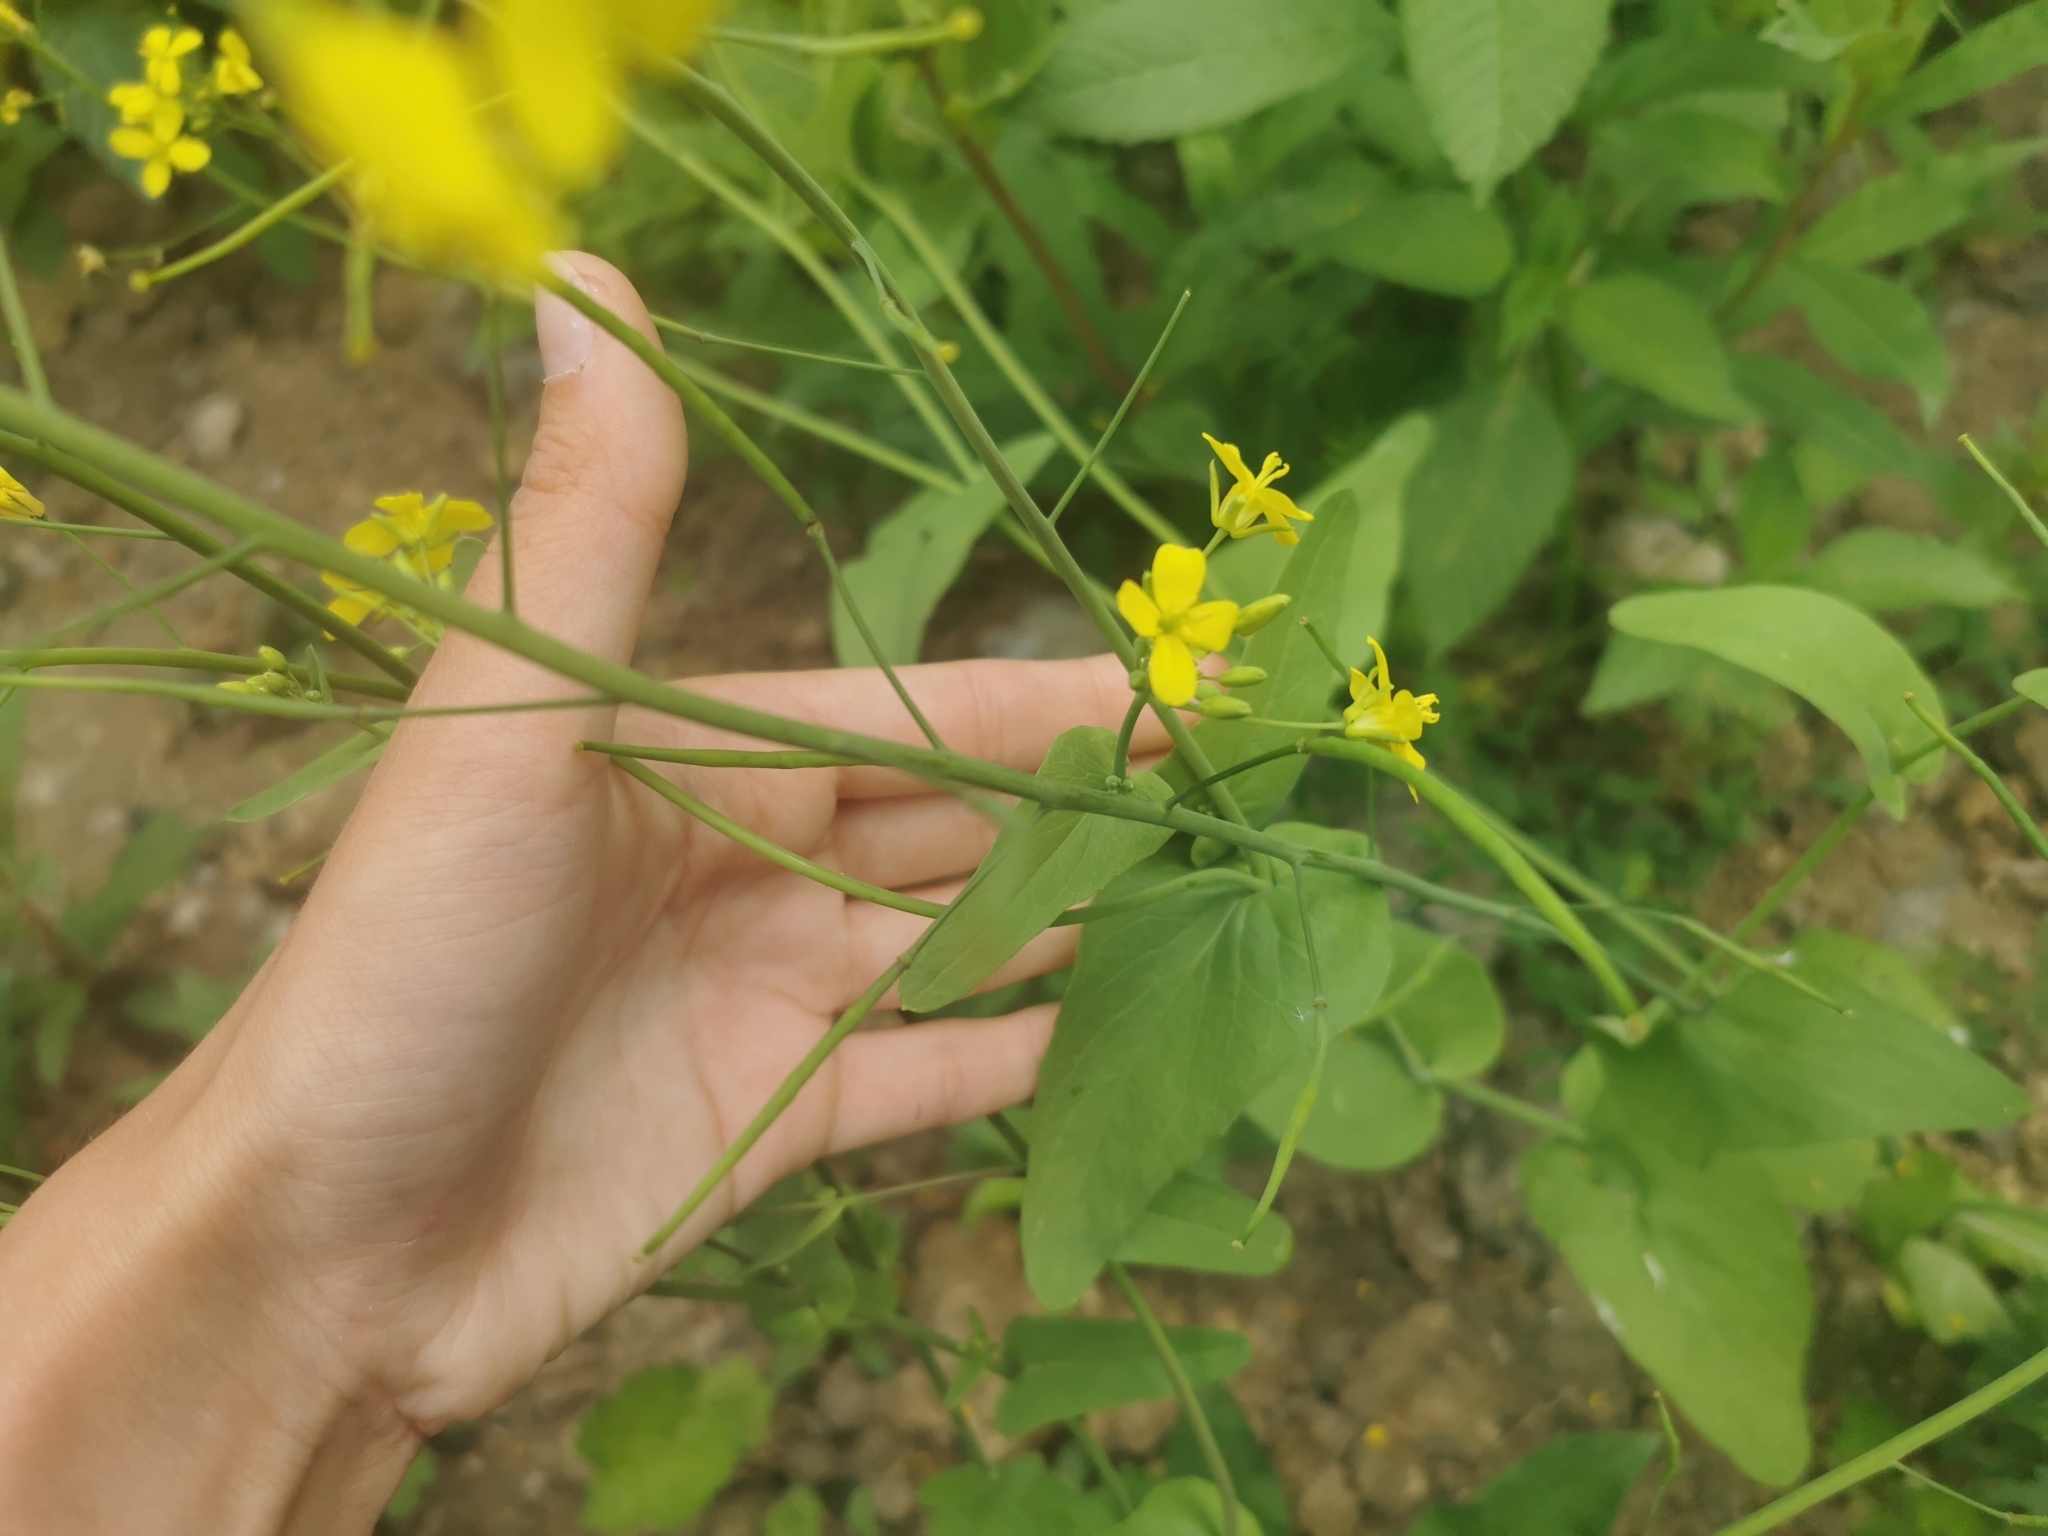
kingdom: Plantae
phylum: Tracheophyta
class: Magnoliopsida
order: Brassicales
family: Brassicaceae
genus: Brassica
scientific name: Brassica rapa
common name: Field mustard
